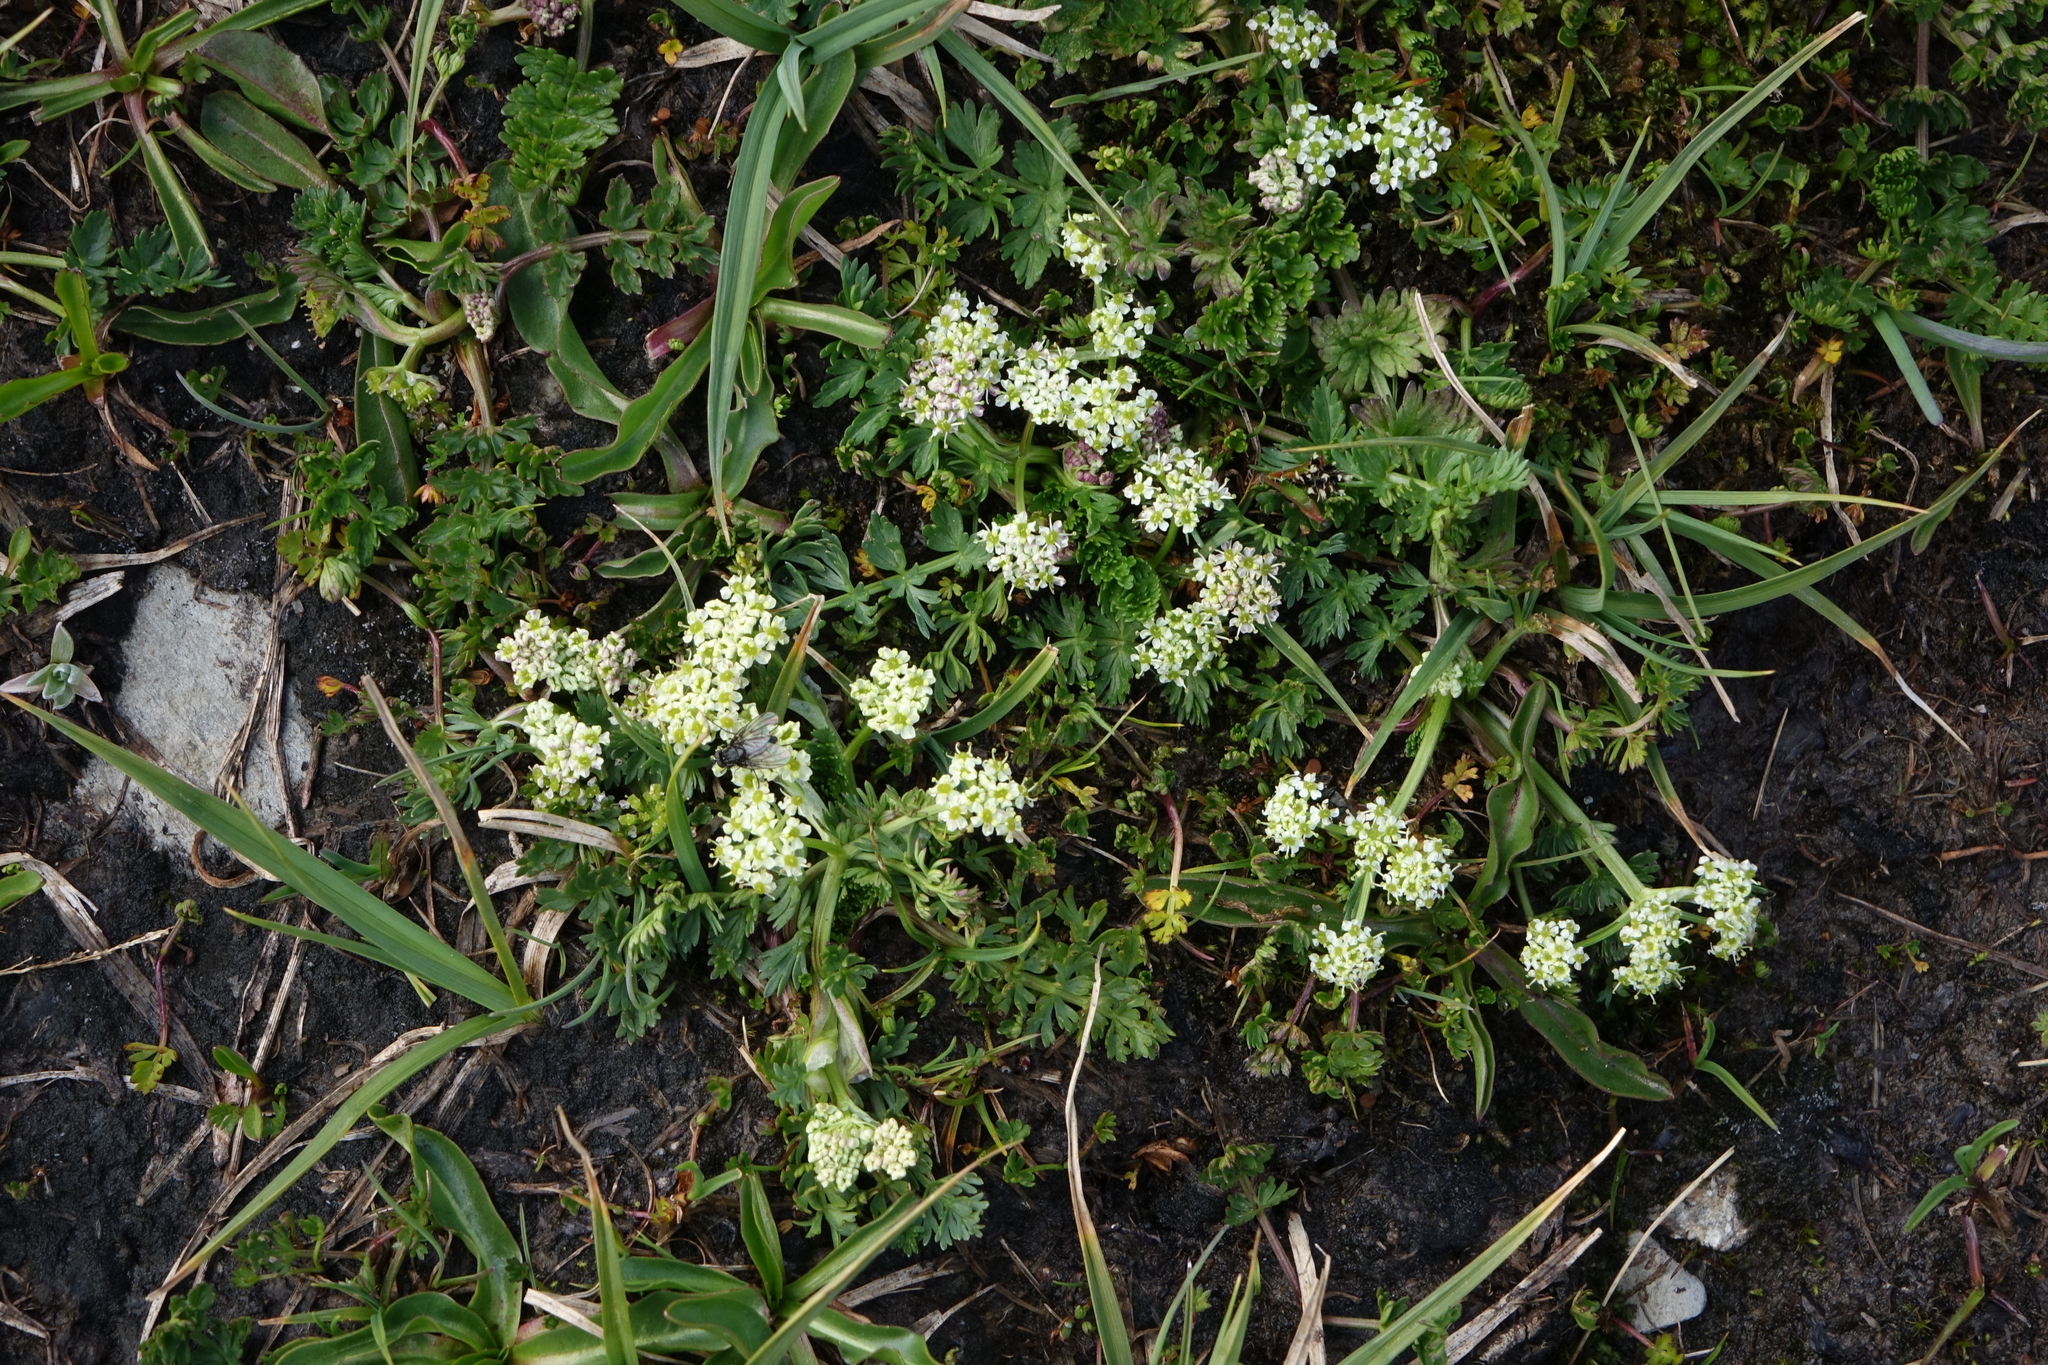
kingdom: Plantae
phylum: Tracheophyta
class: Magnoliopsida
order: Apiales
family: Apiaceae
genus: Chamaesciadium
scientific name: Chamaesciadium acaule
